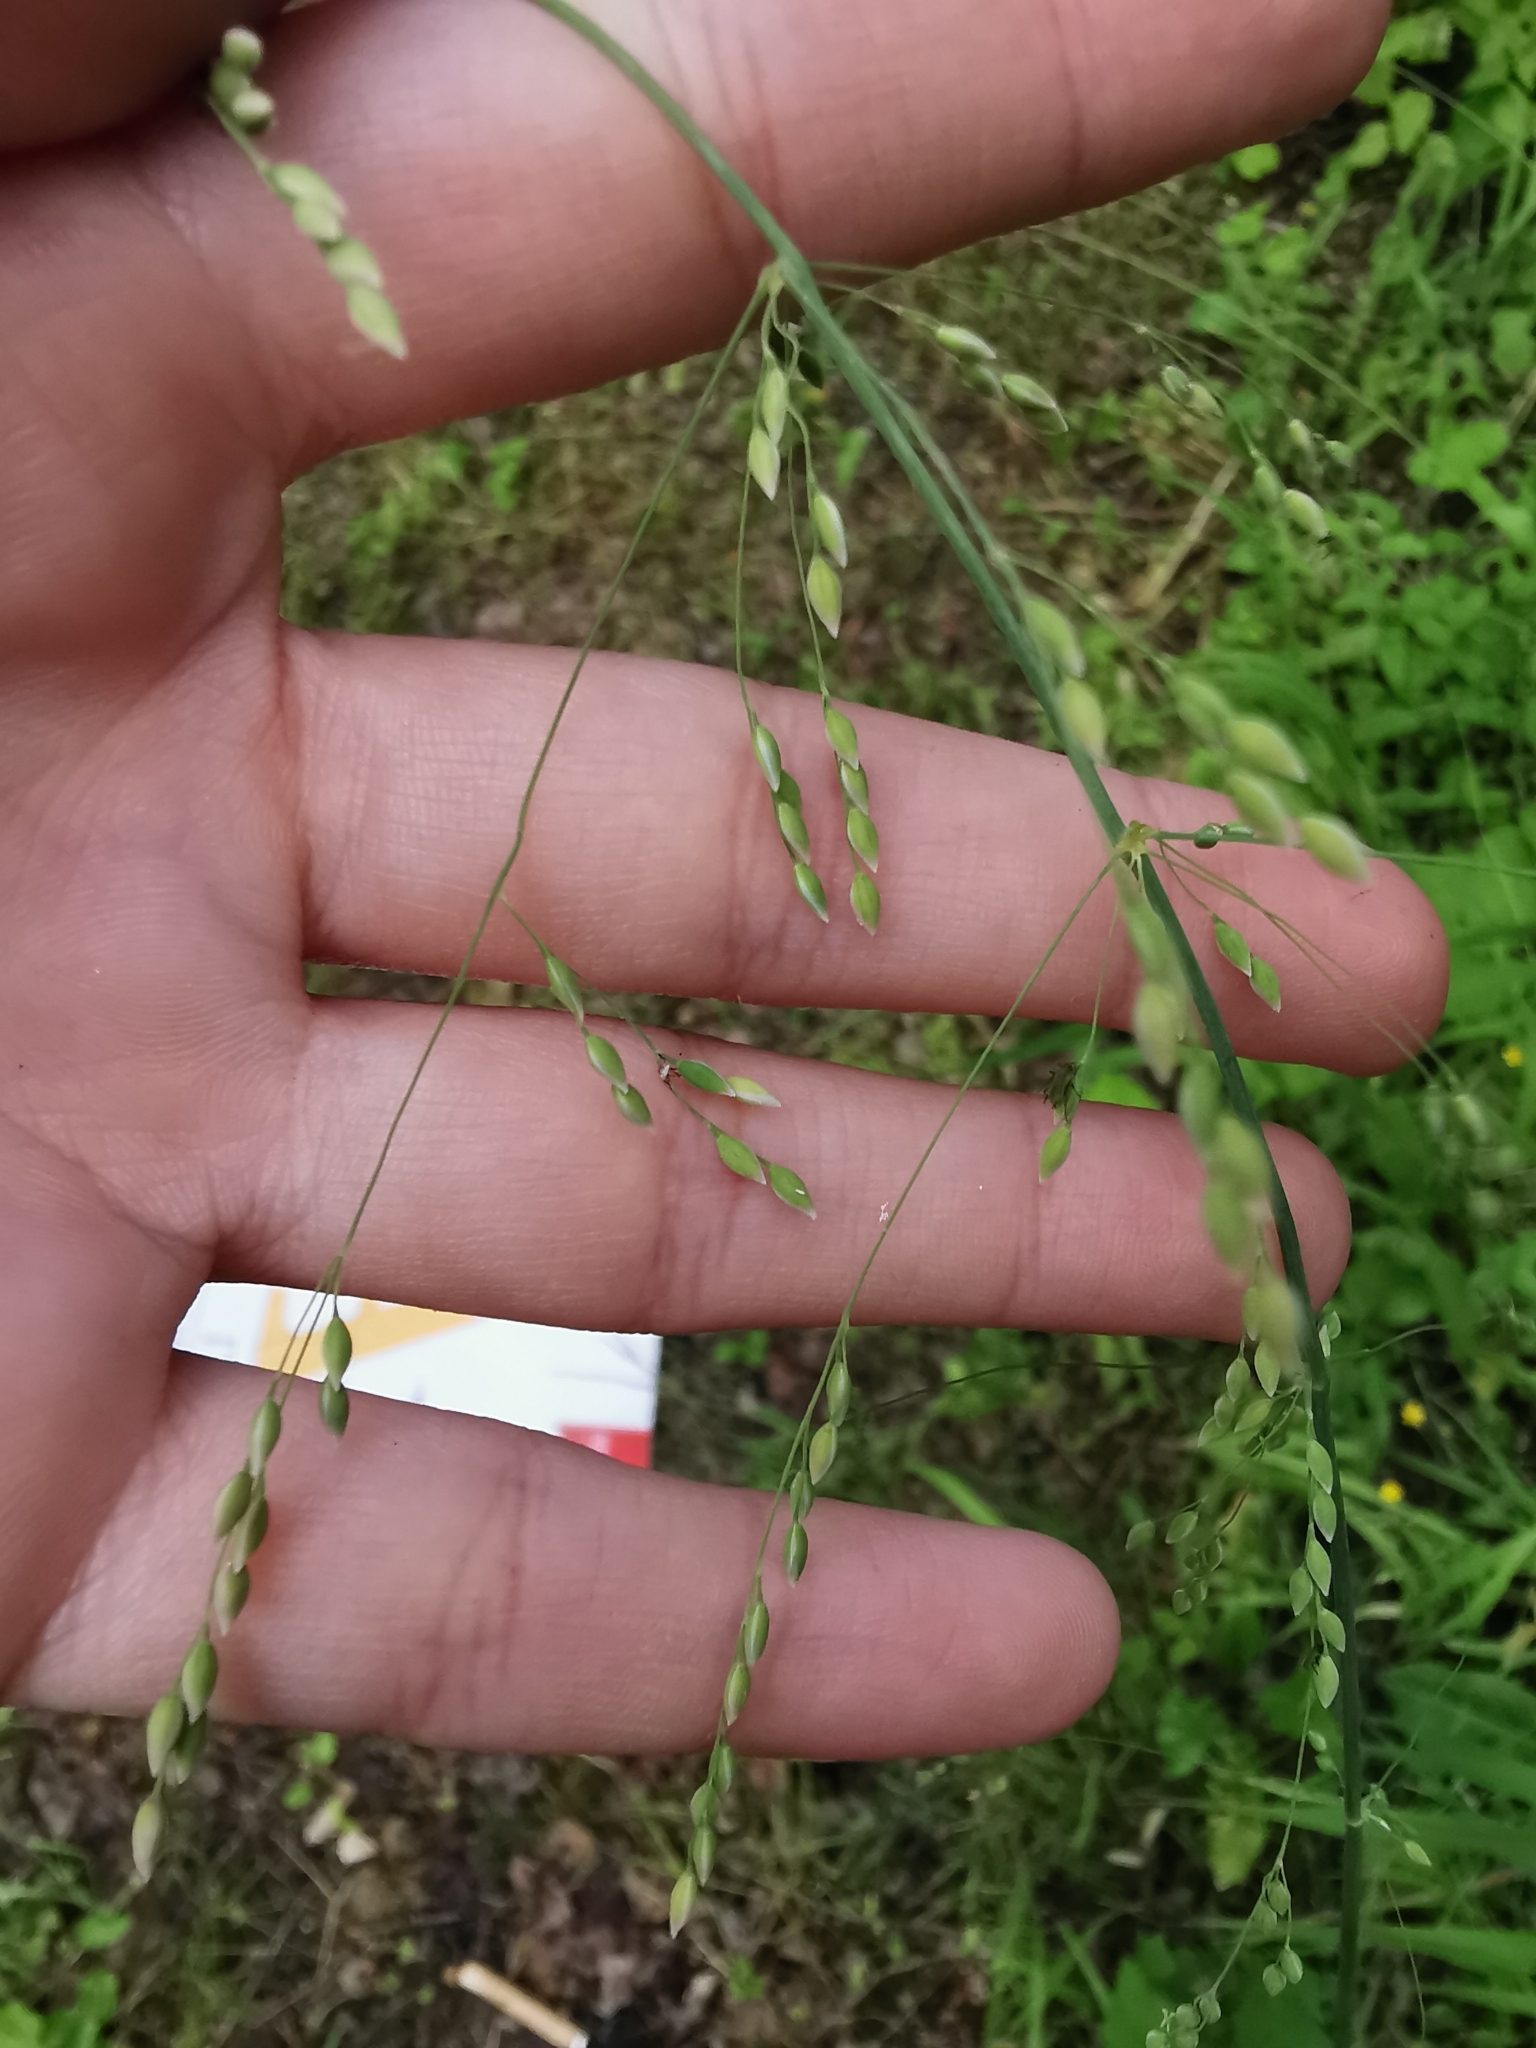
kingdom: Plantae
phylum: Tracheophyta
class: Liliopsida
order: Poales
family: Poaceae
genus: Milium
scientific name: Milium effusum
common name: Wood millet
